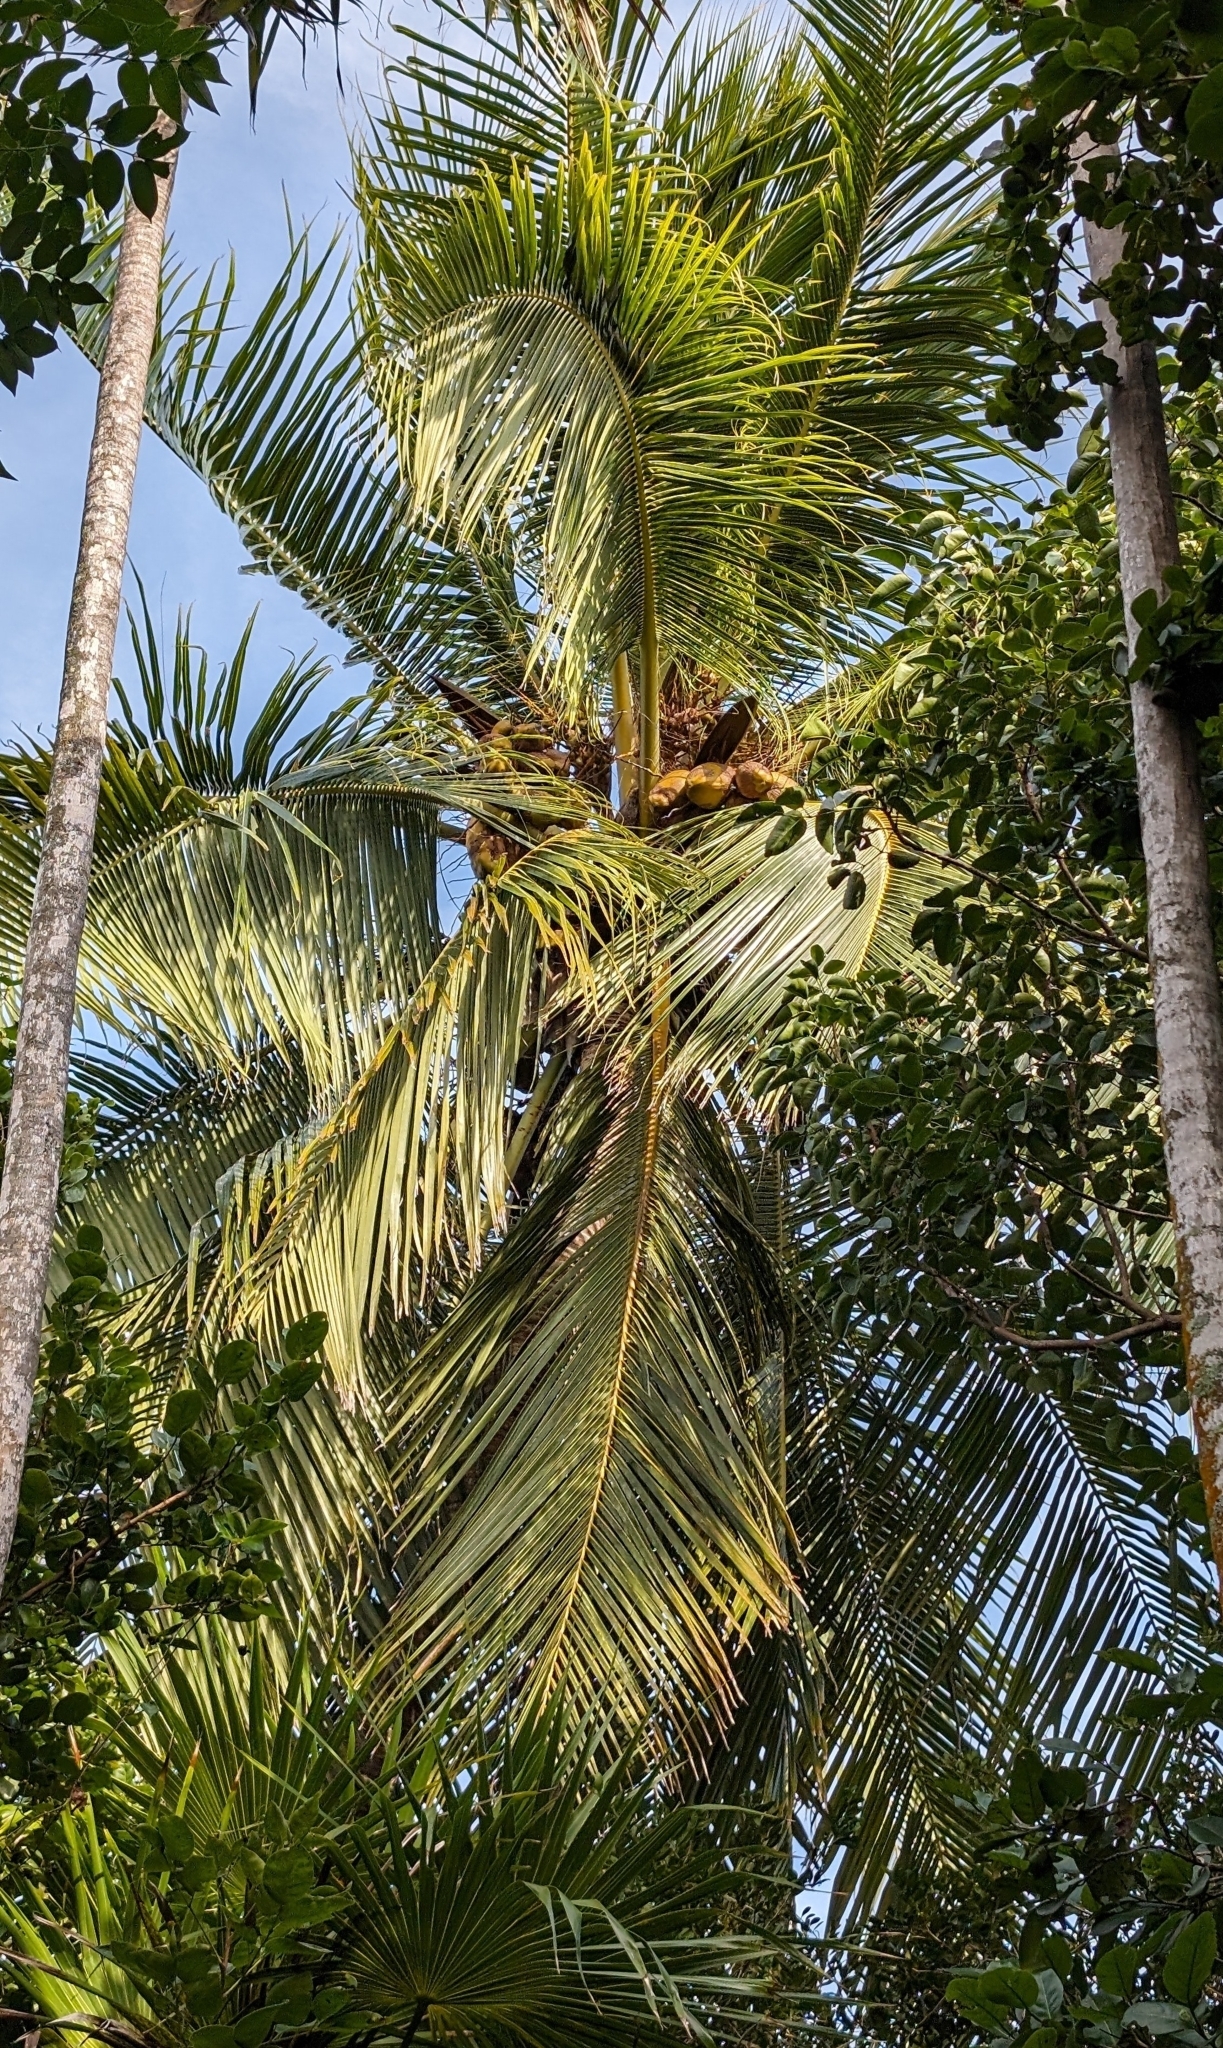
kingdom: Plantae
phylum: Tracheophyta
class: Liliopsida
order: Arecales
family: Arecaceae
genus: Cocos
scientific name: Cocos nucifera
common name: Coconut palm
